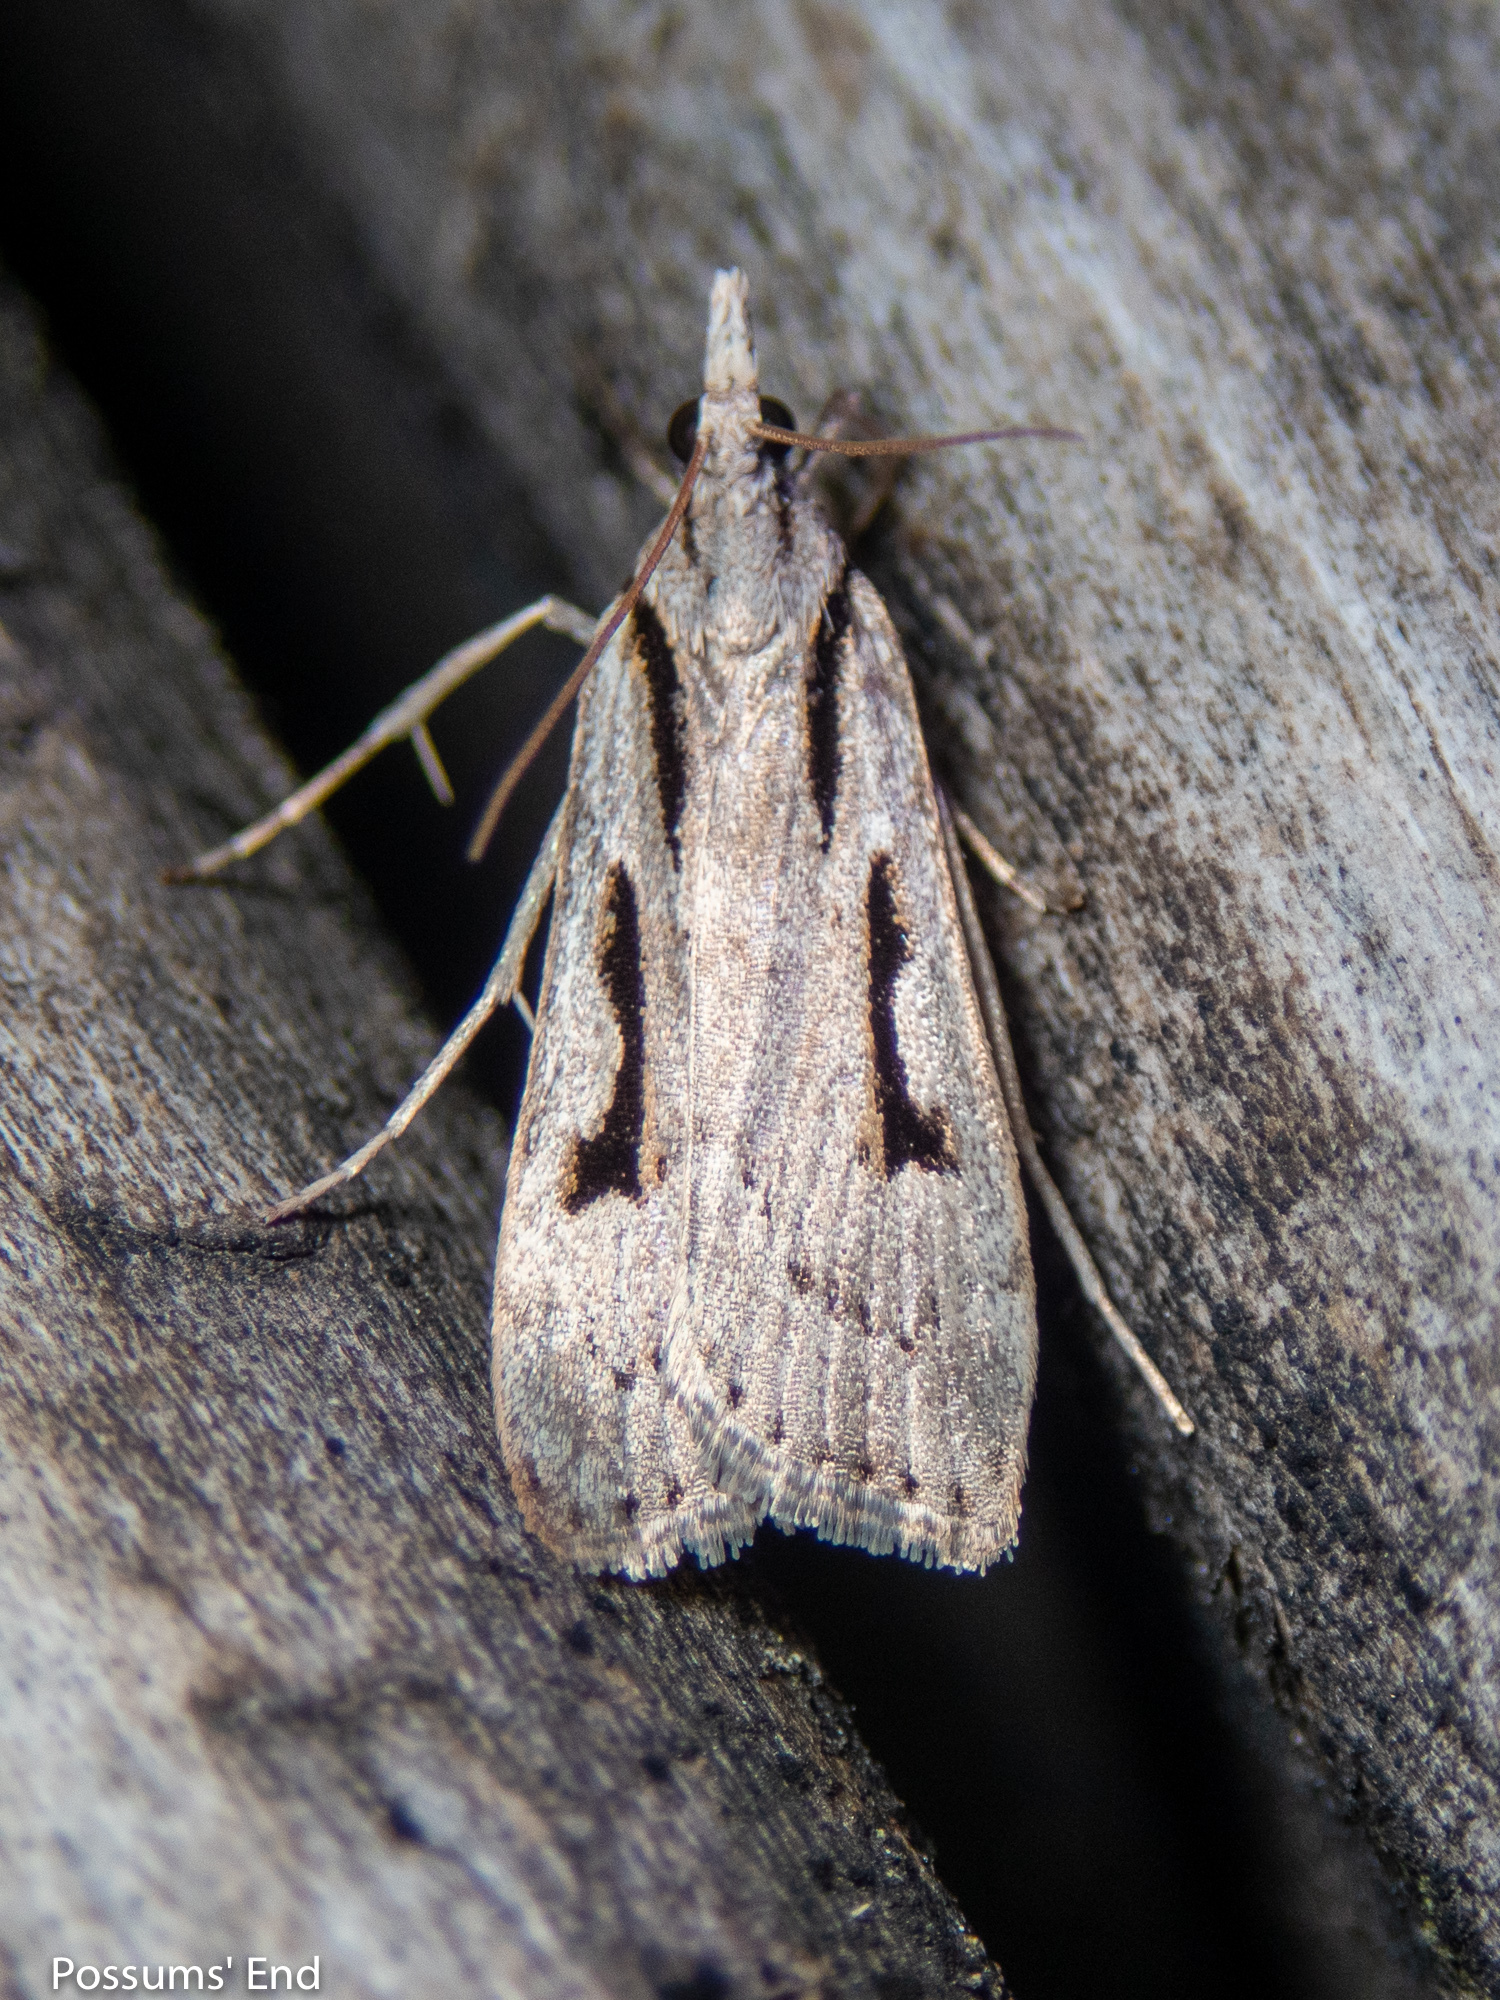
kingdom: Animalia
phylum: Arthropoda
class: Insecta
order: Lepidoptera
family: Crambidae
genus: Scoparia
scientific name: Scoparia rotuellus
